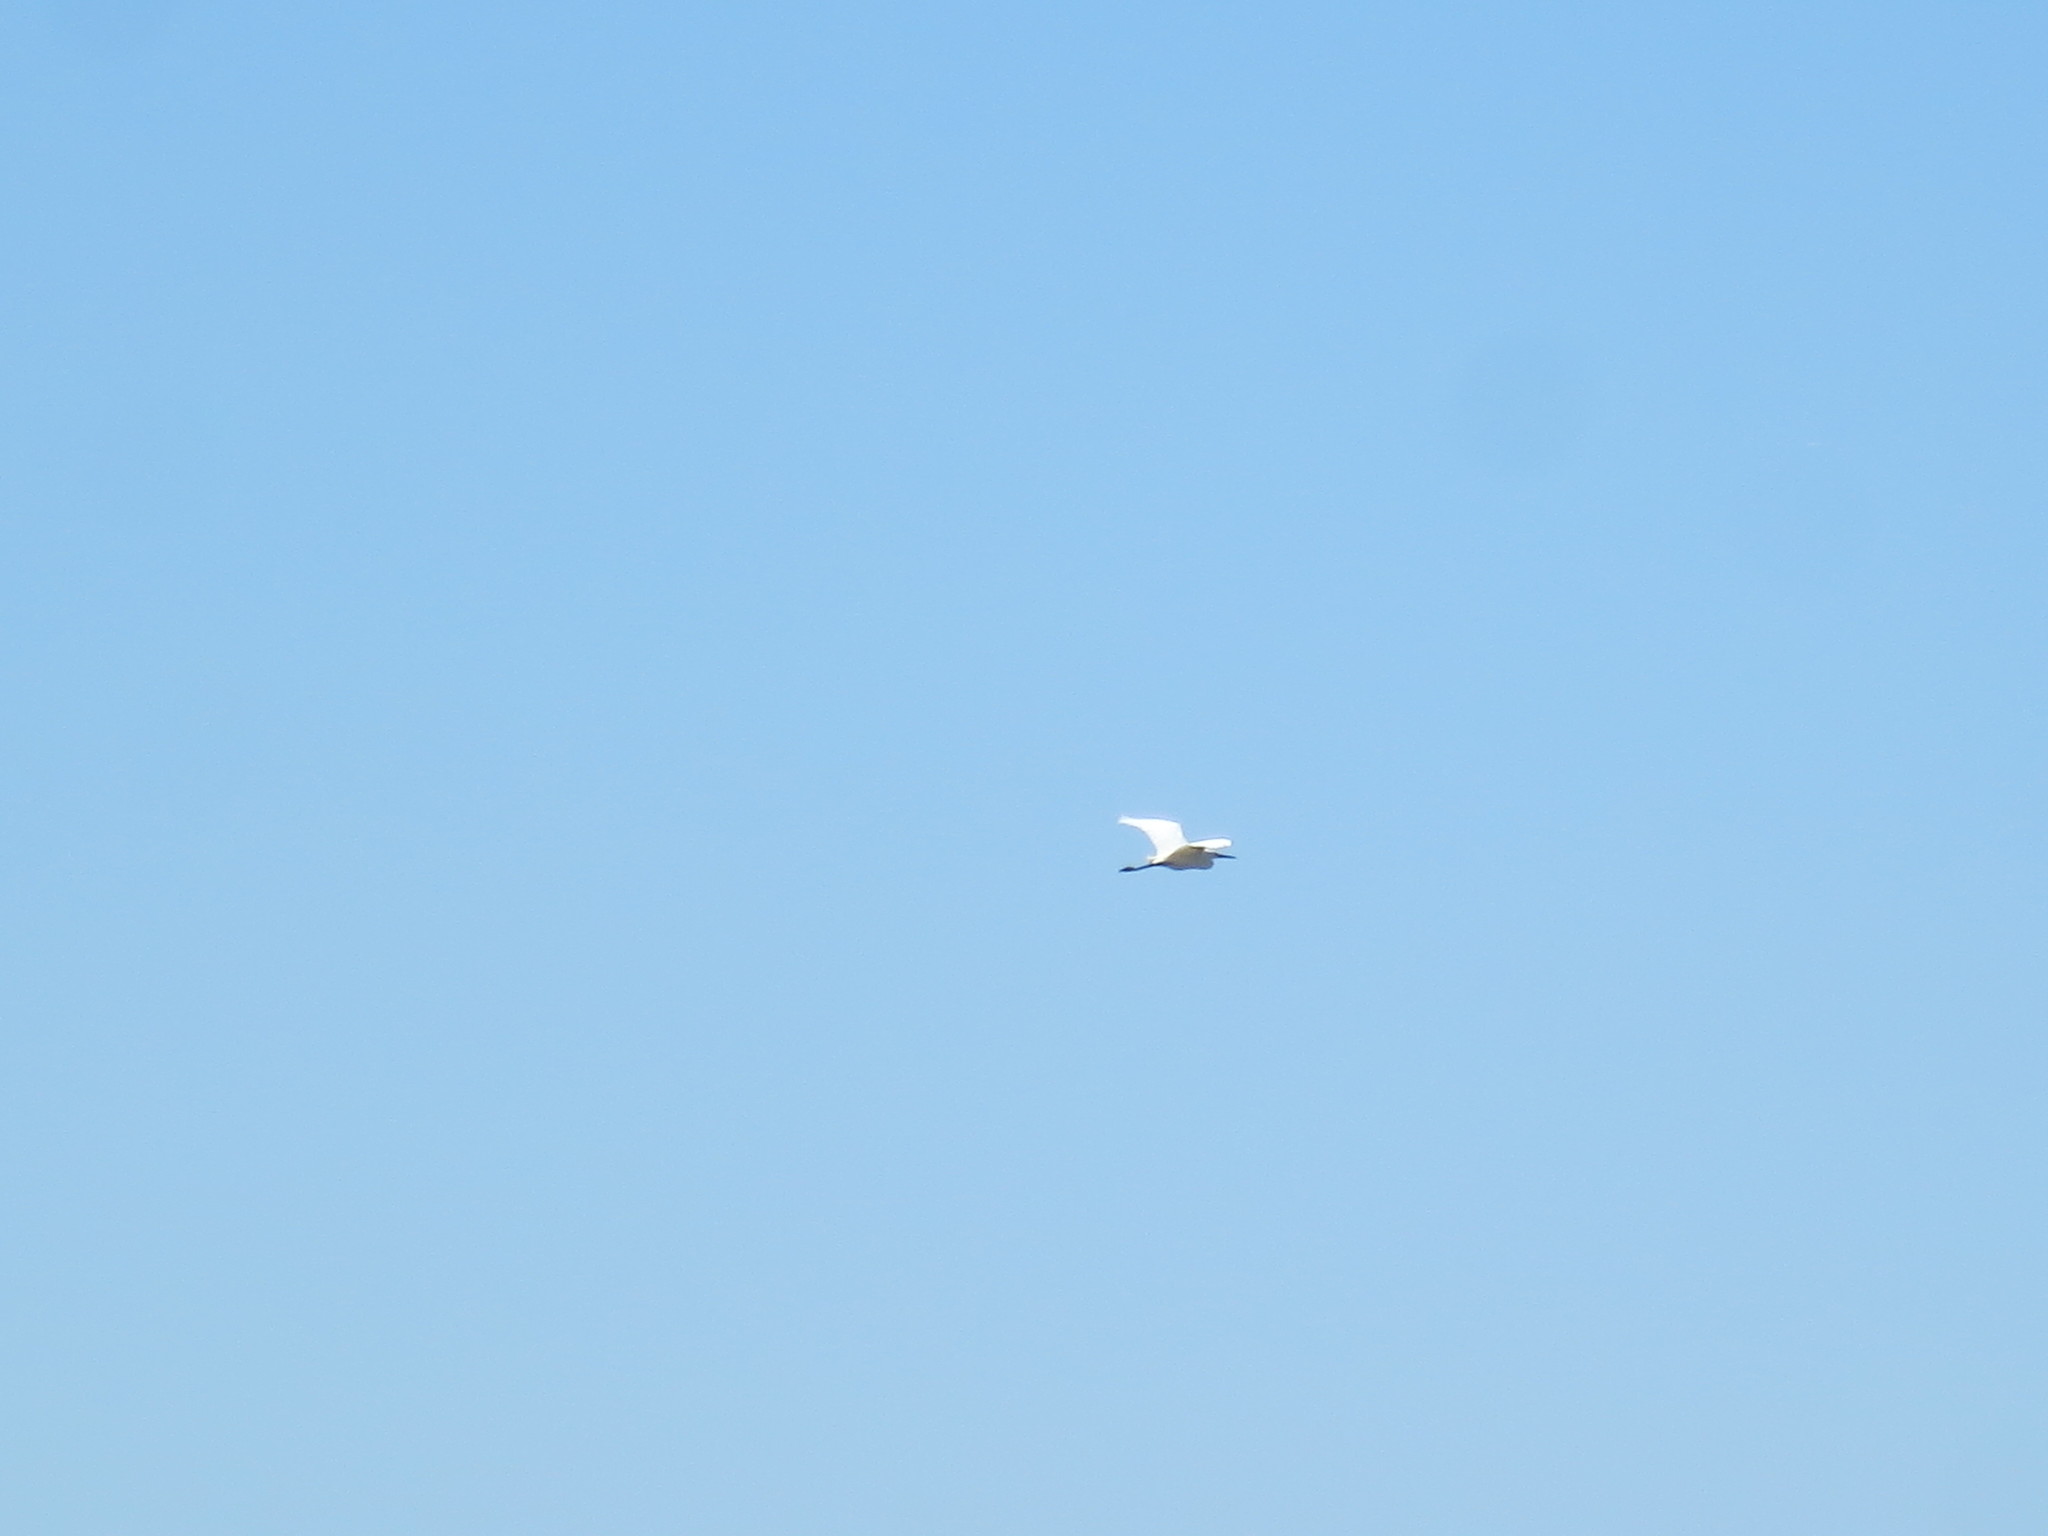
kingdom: Animalia
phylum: Chordata
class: Aves
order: Pelecaniformes
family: Ardeidae
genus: Ardea
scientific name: Ardea alba
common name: Great egret
